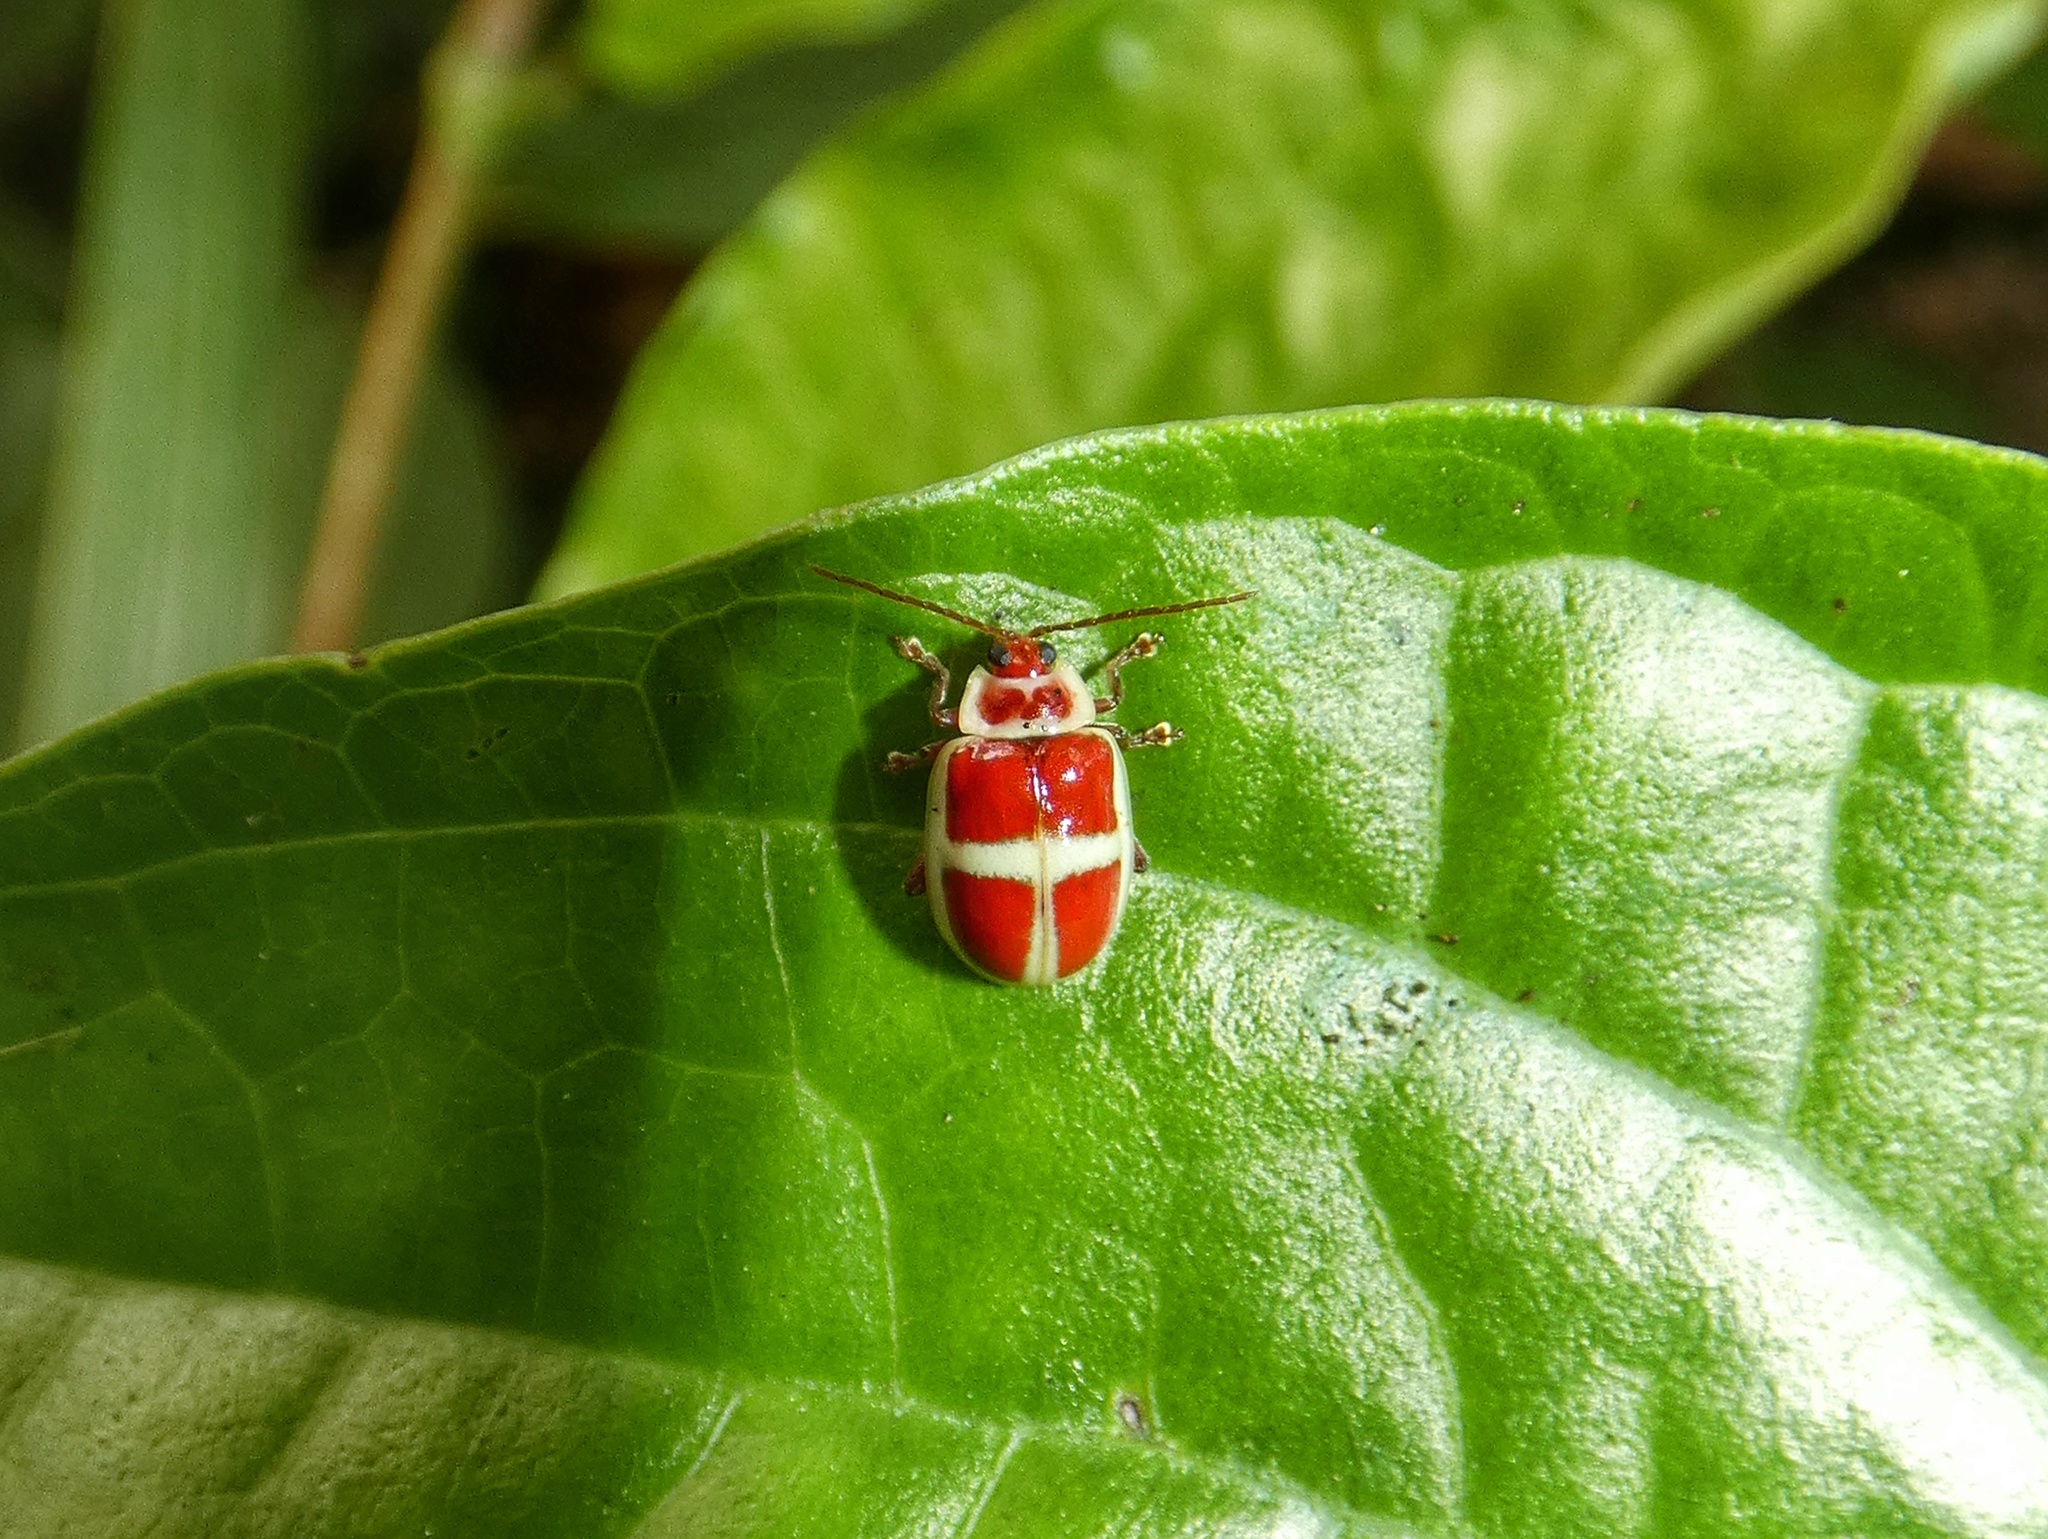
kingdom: Animalia
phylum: Arthropoda
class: Insecta
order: Coleoptera
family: Chrysomelidae
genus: Asphaera
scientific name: Asphaera discicollis
